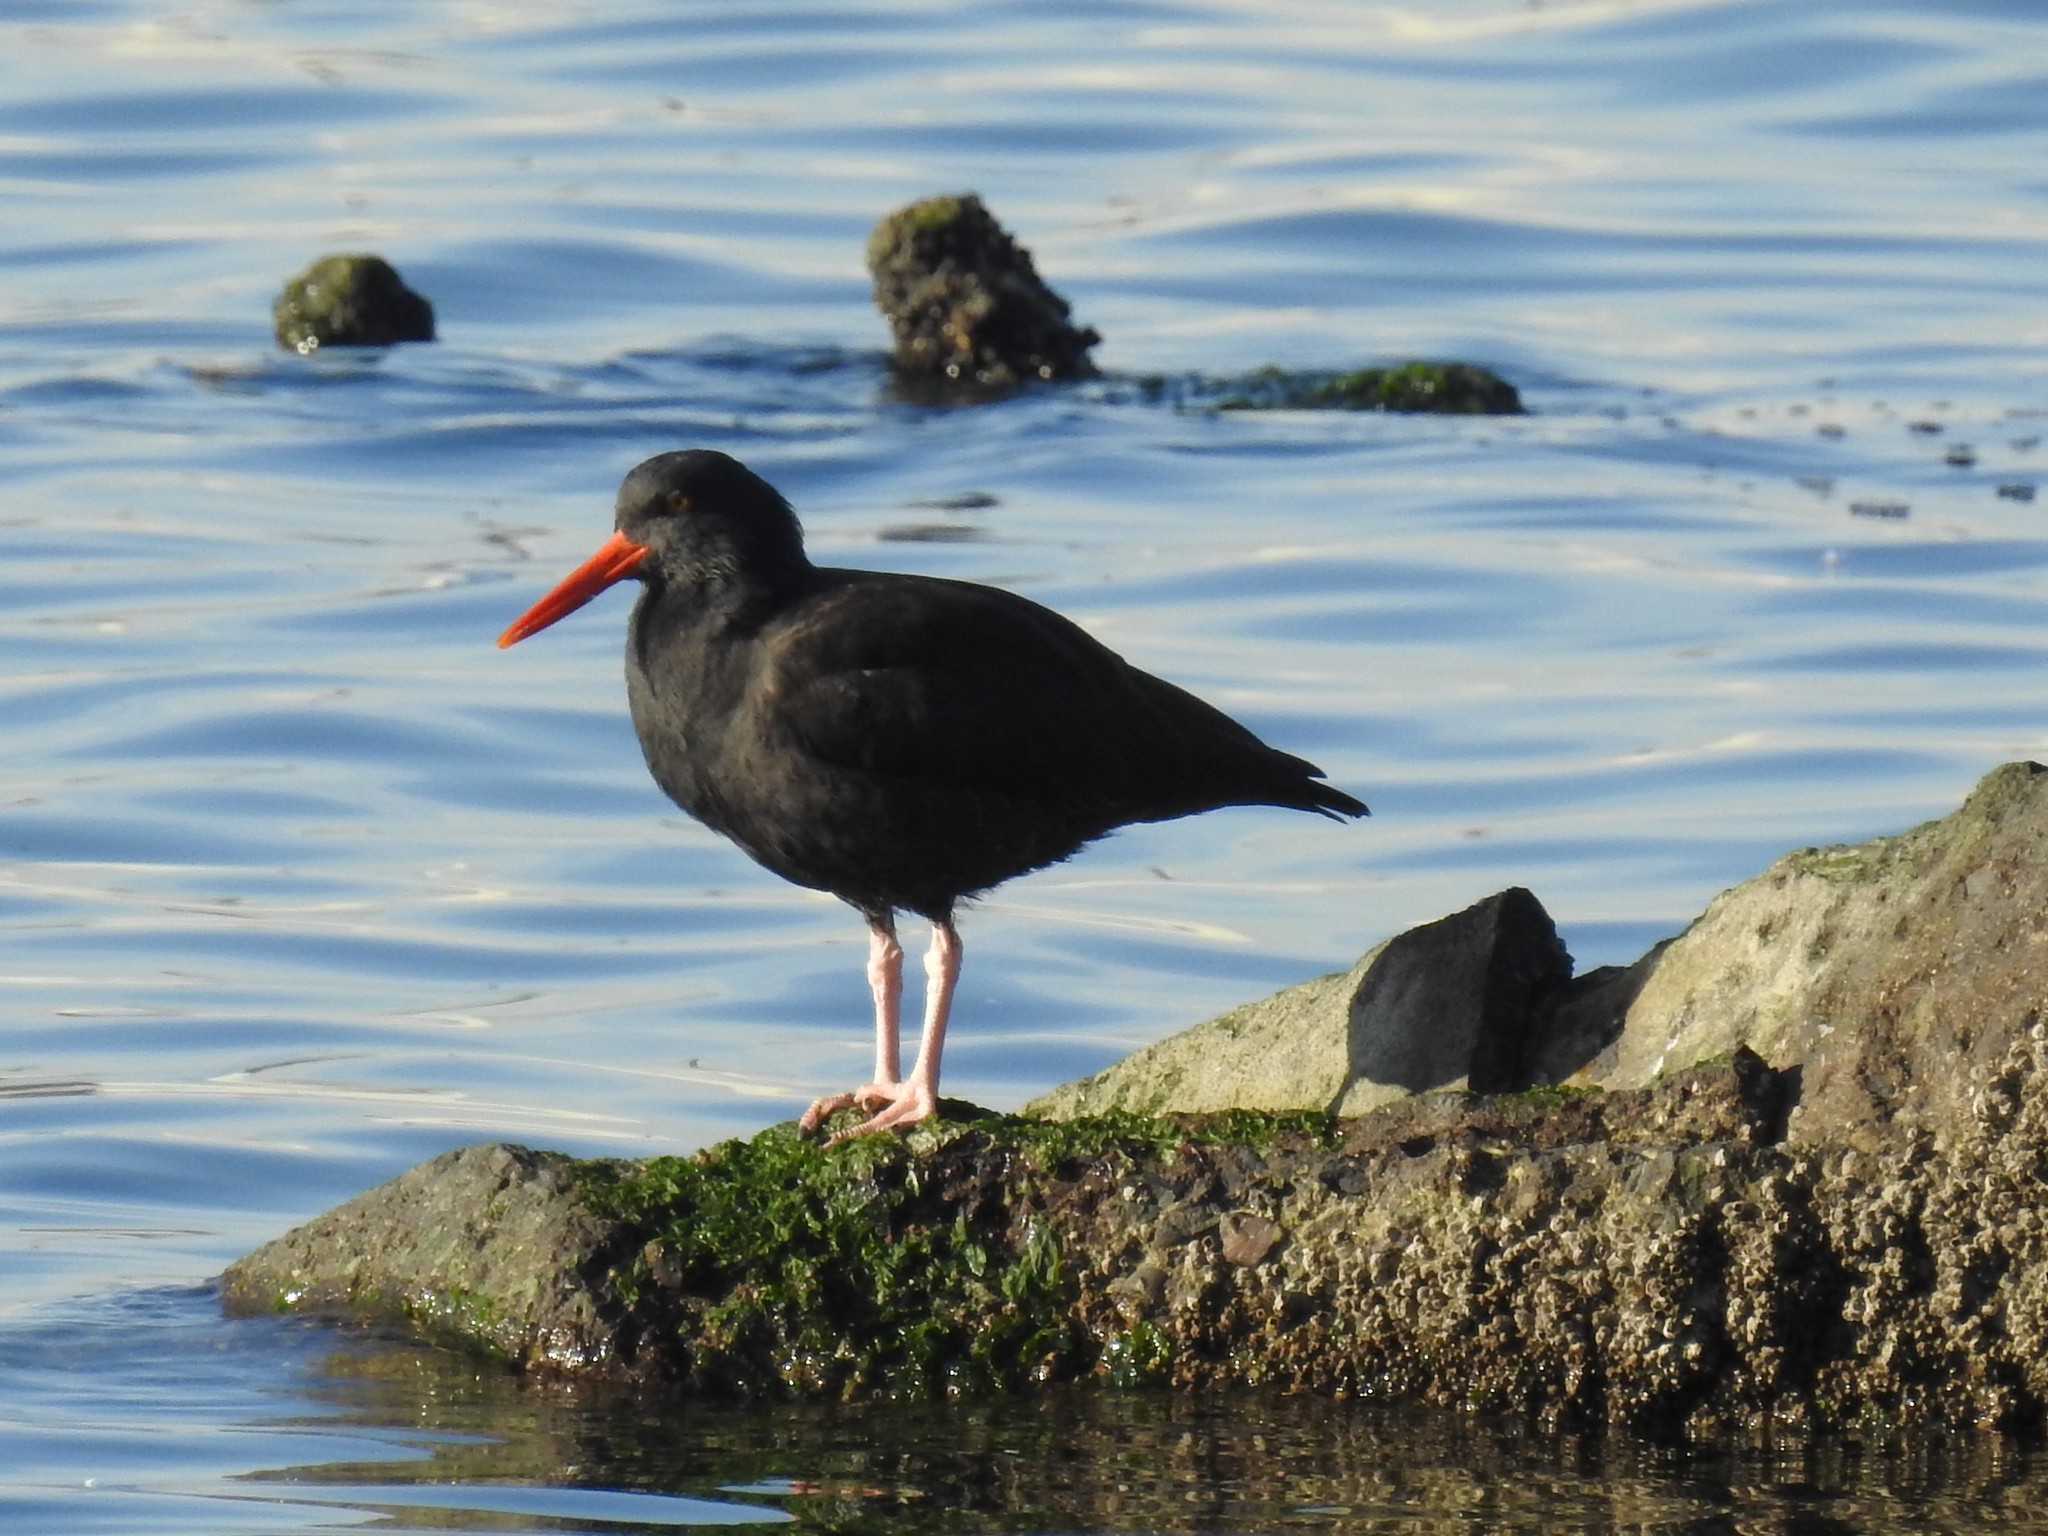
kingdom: Animalia
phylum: Chordata
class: Aves
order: Charadriiformes
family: Haematopodidae
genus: Haematopus
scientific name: Haematopus bachmani
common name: Black oystercatcher
